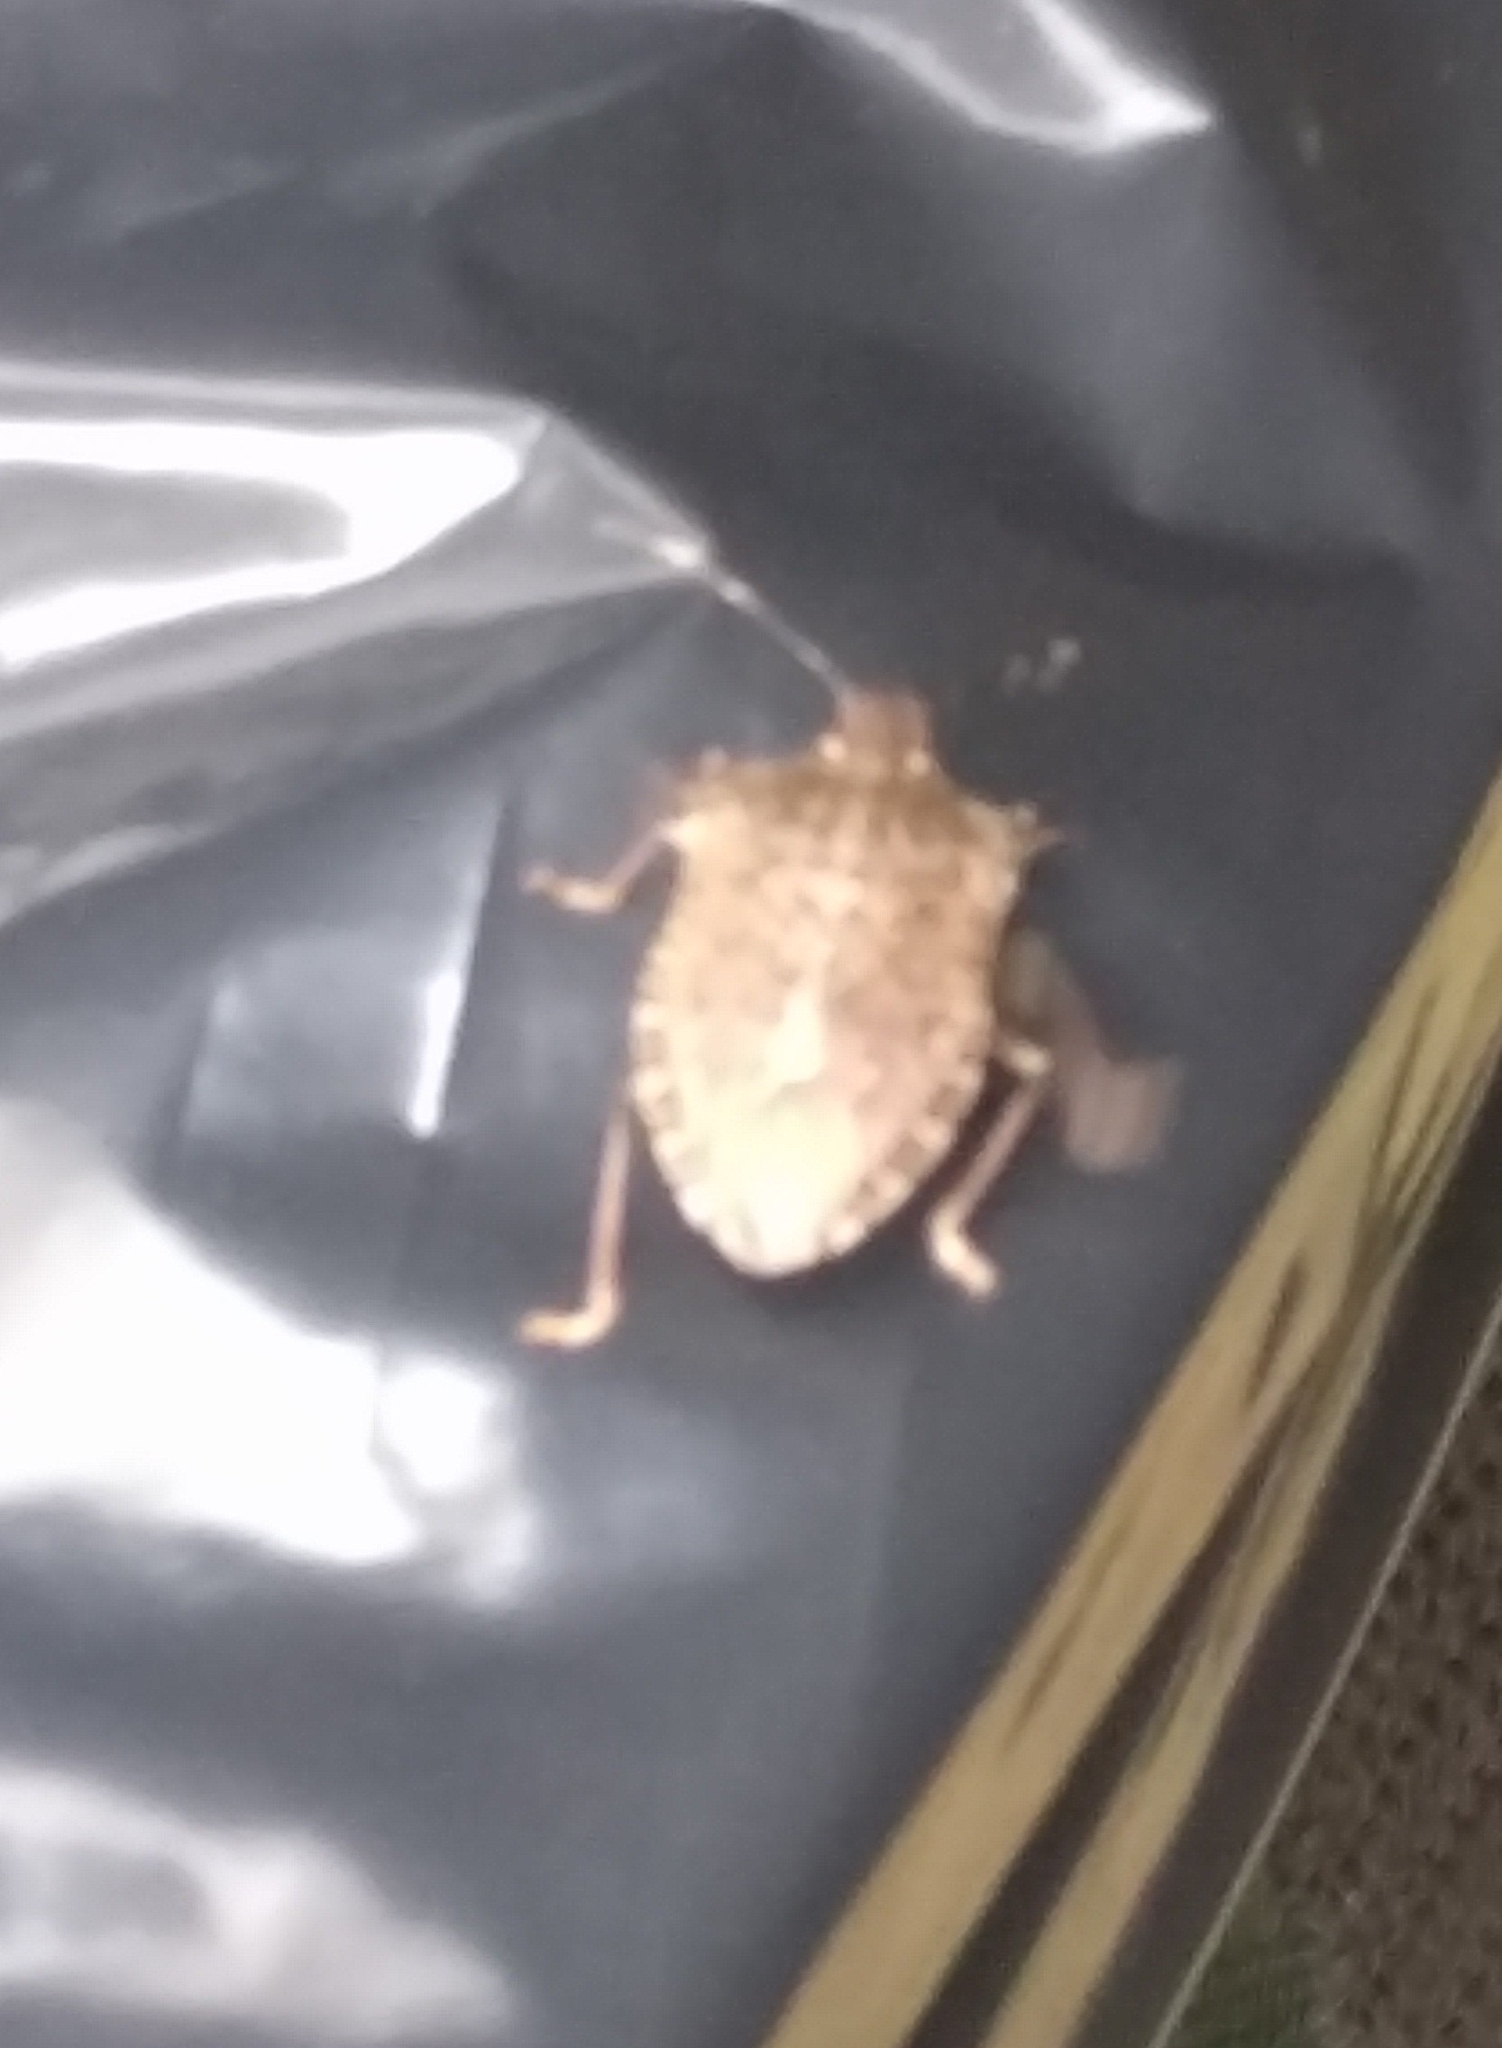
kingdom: Animalia
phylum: Arthropoda
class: Insecta
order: Hemiptera
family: Pentatomidae
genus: Halyomorpha
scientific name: Halyomorpha halys
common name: Brown marmorated stink bug
